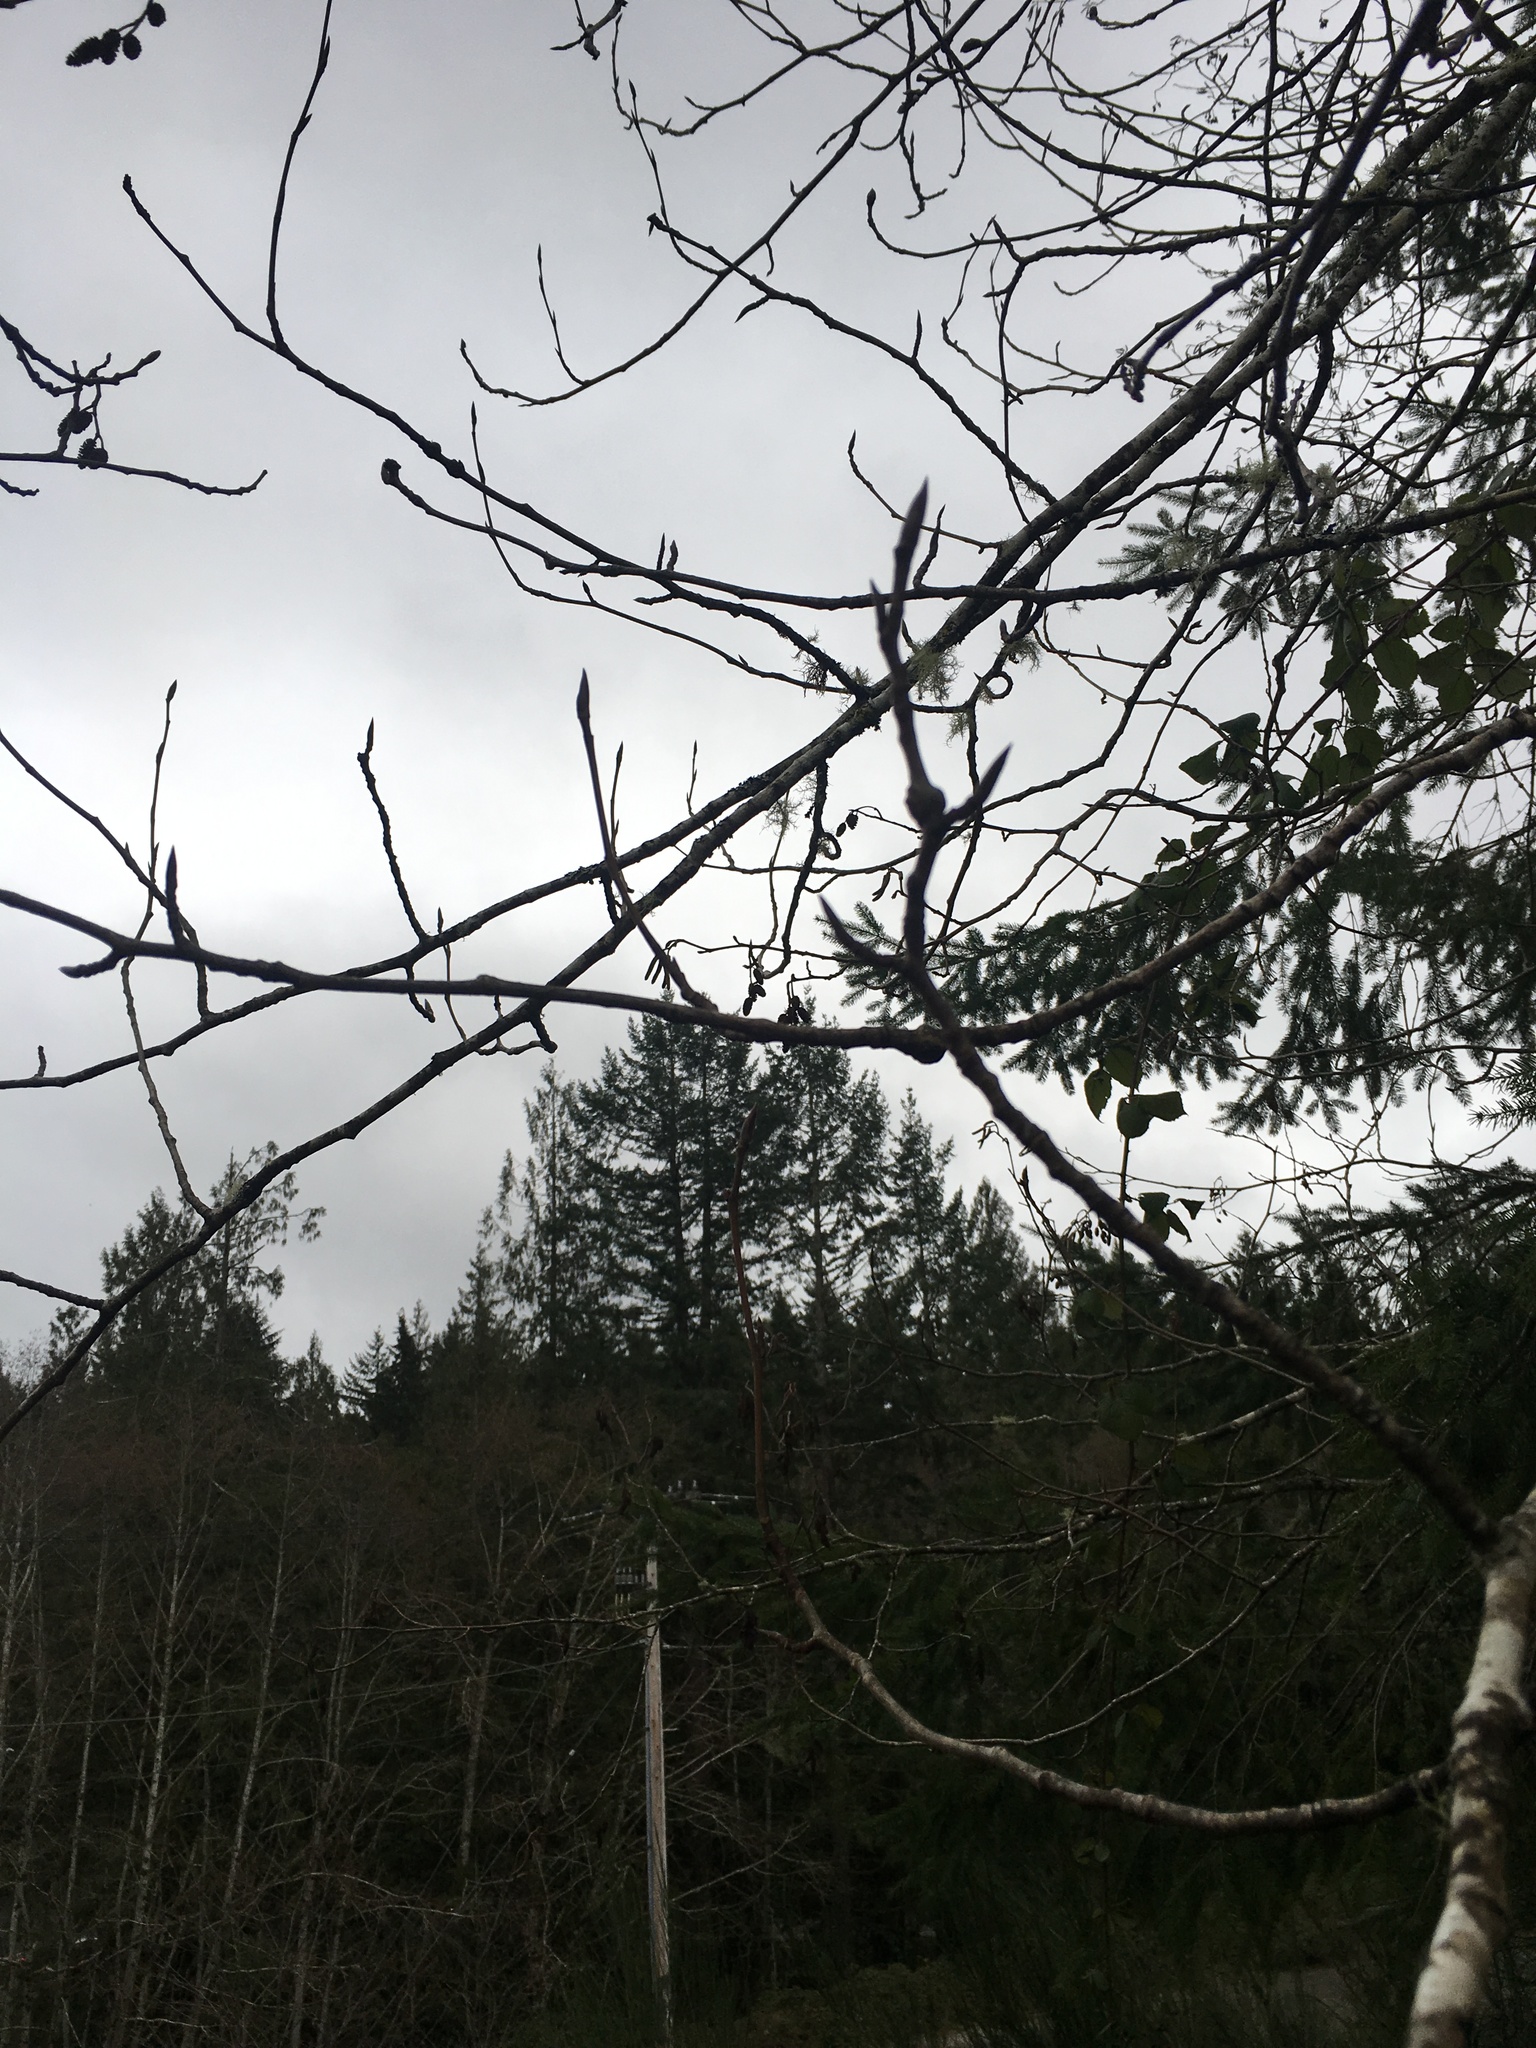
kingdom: Plantae
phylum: Tracheophyta
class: Magnoliopsida
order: Malpighiales
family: Salicaceae
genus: Populus
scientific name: Populus trichocarpa
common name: Black cottonwood
